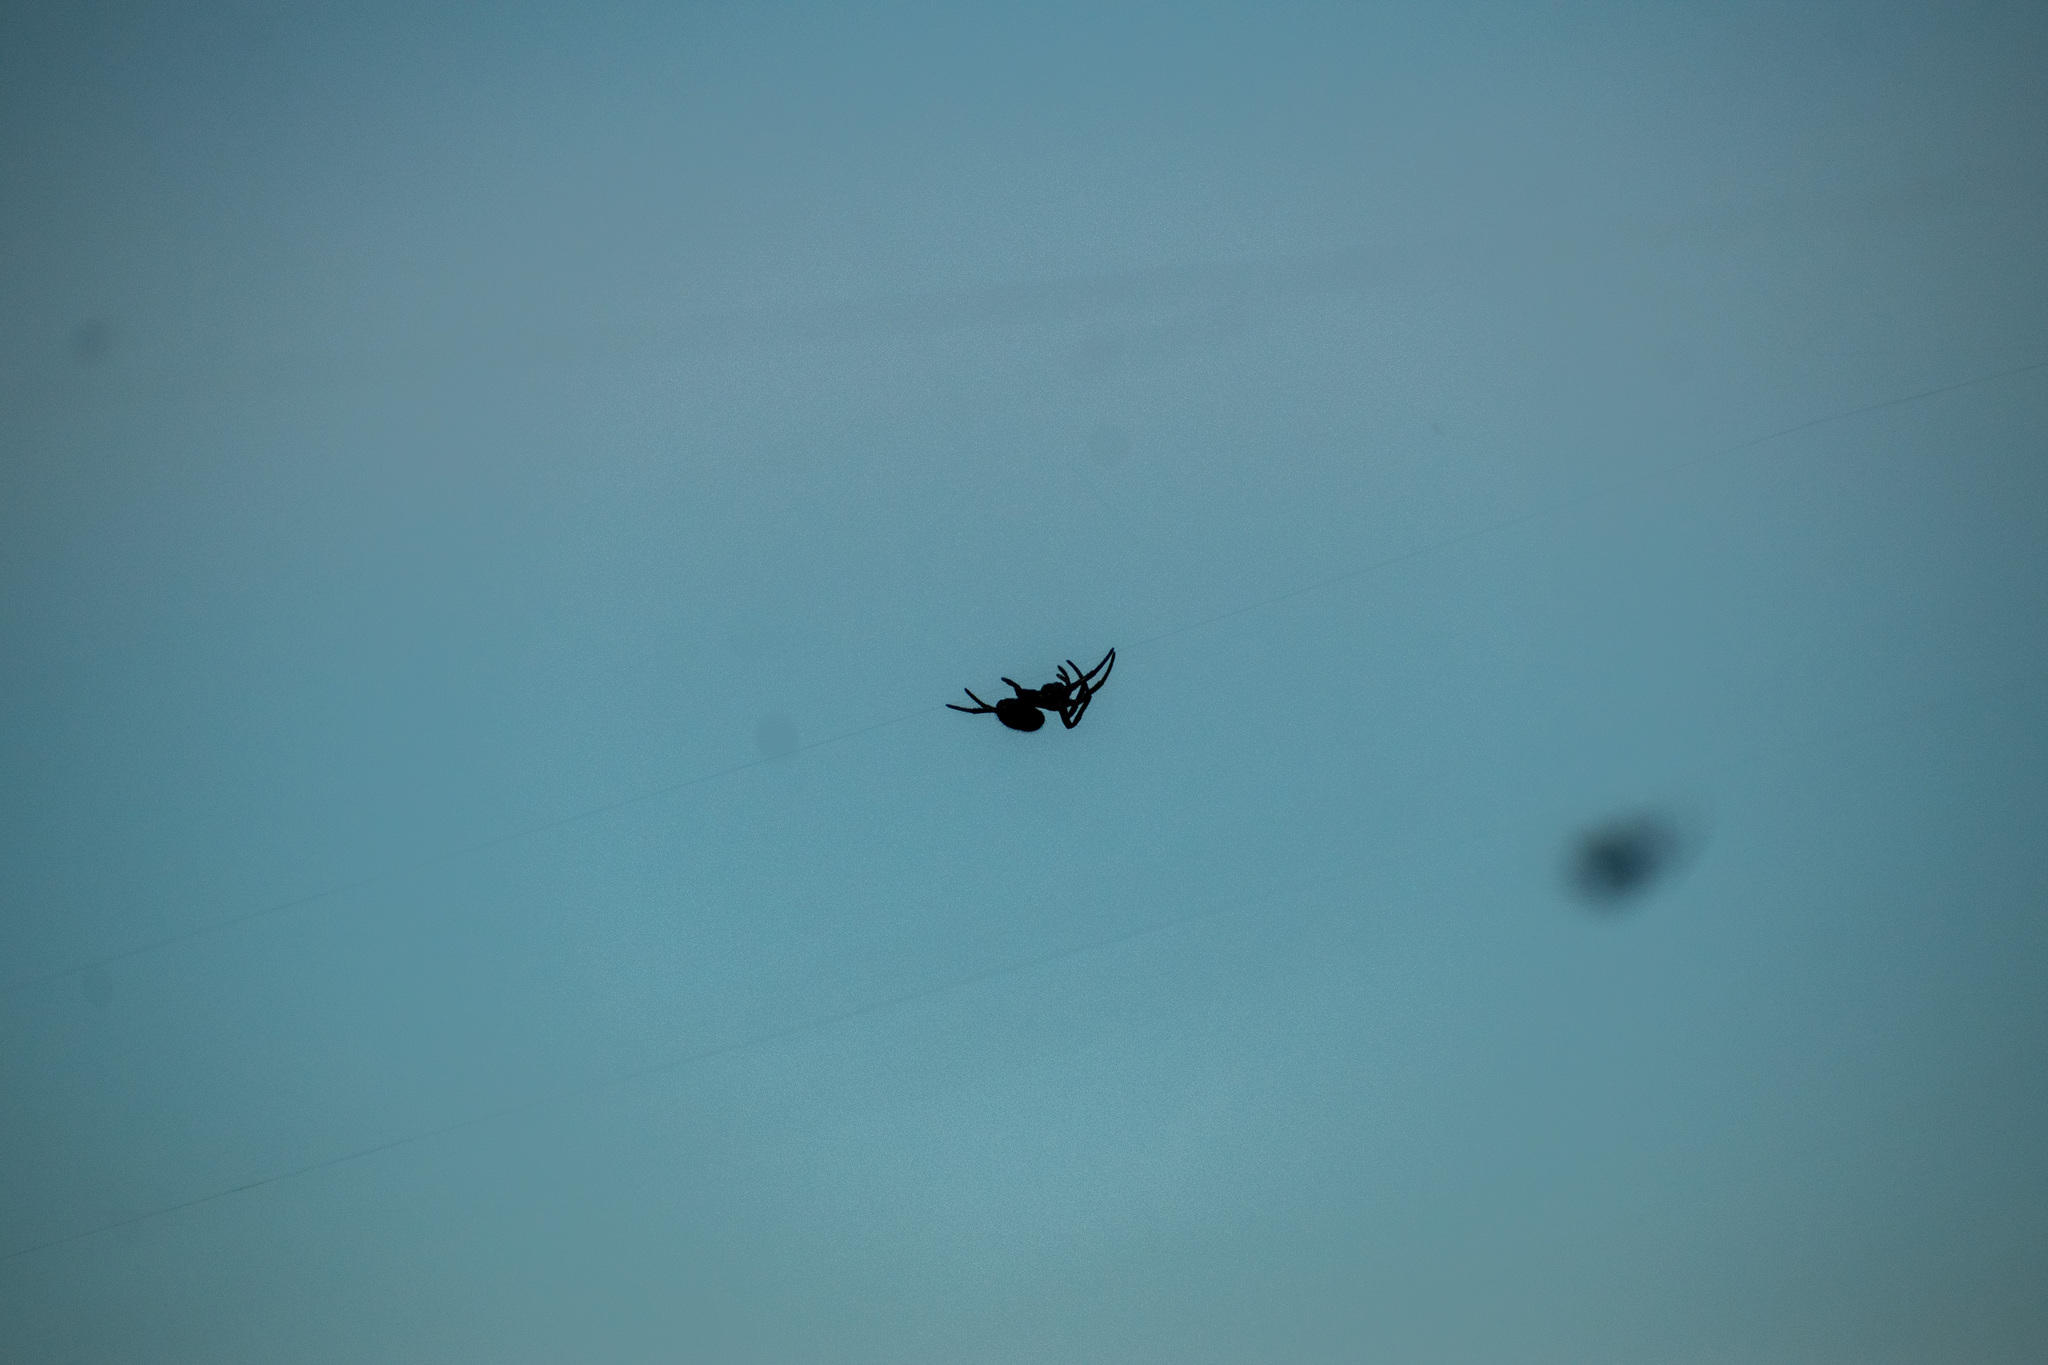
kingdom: Animalia
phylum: Arthropoda
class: Arachnida
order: Araneae
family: Araneidae
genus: Parawixia
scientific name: Parawixia bistriata
